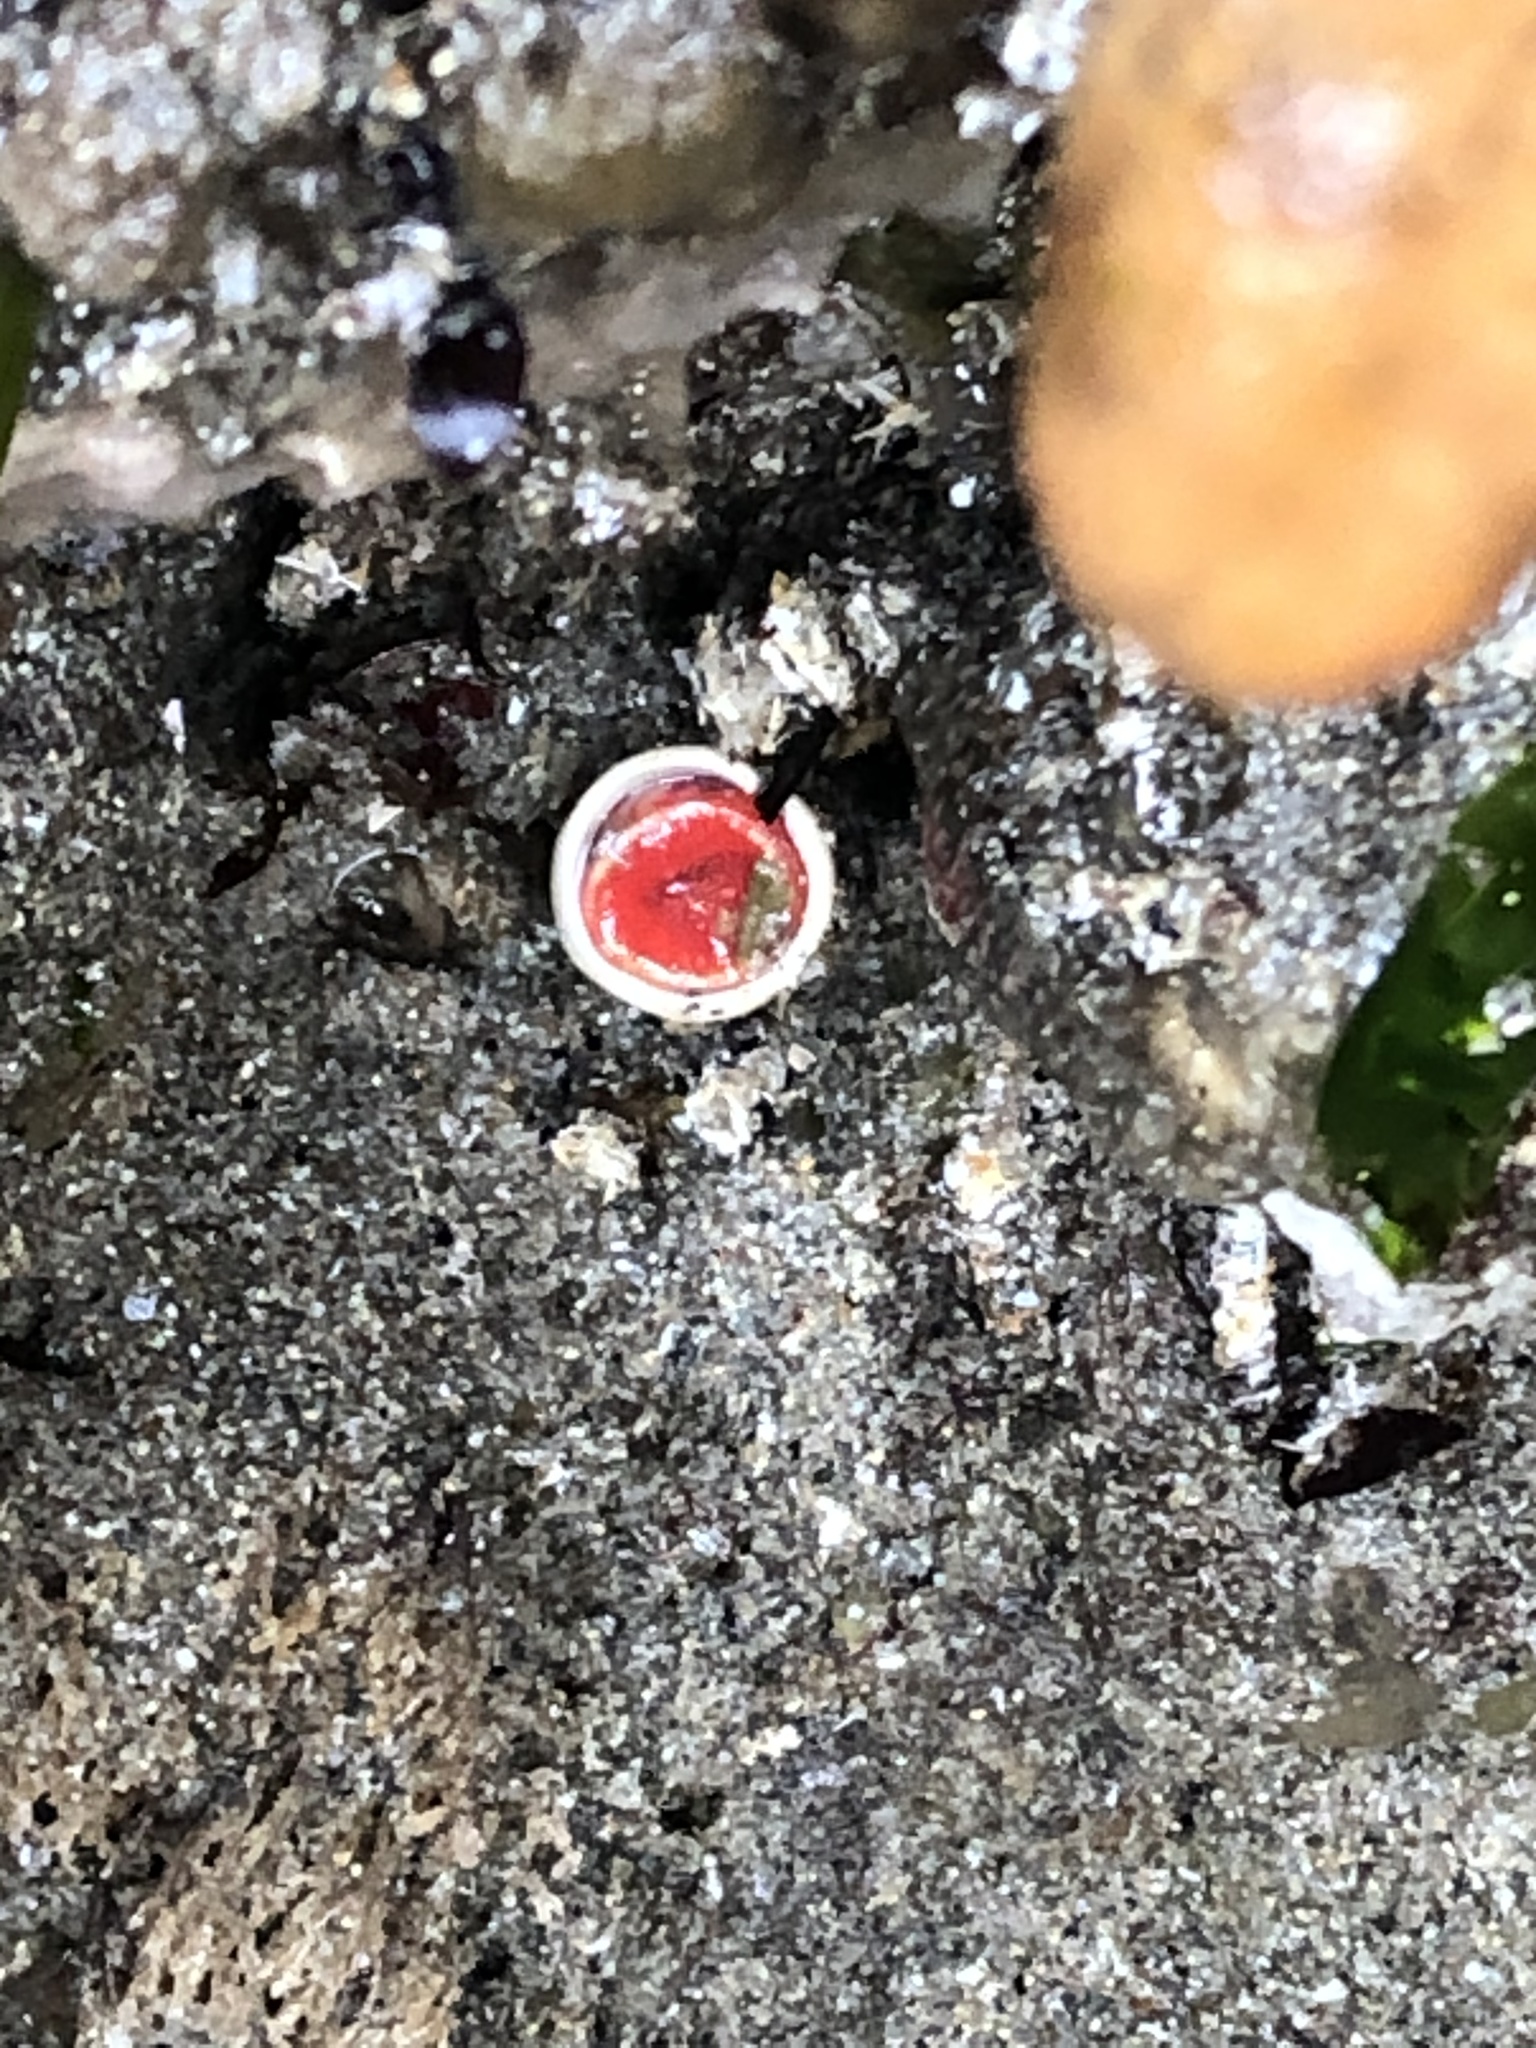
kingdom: Animalia
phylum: Annelida
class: Polychaeta
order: Sabellida
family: Serpulidae
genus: Serpula
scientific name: Serpula columbiana
